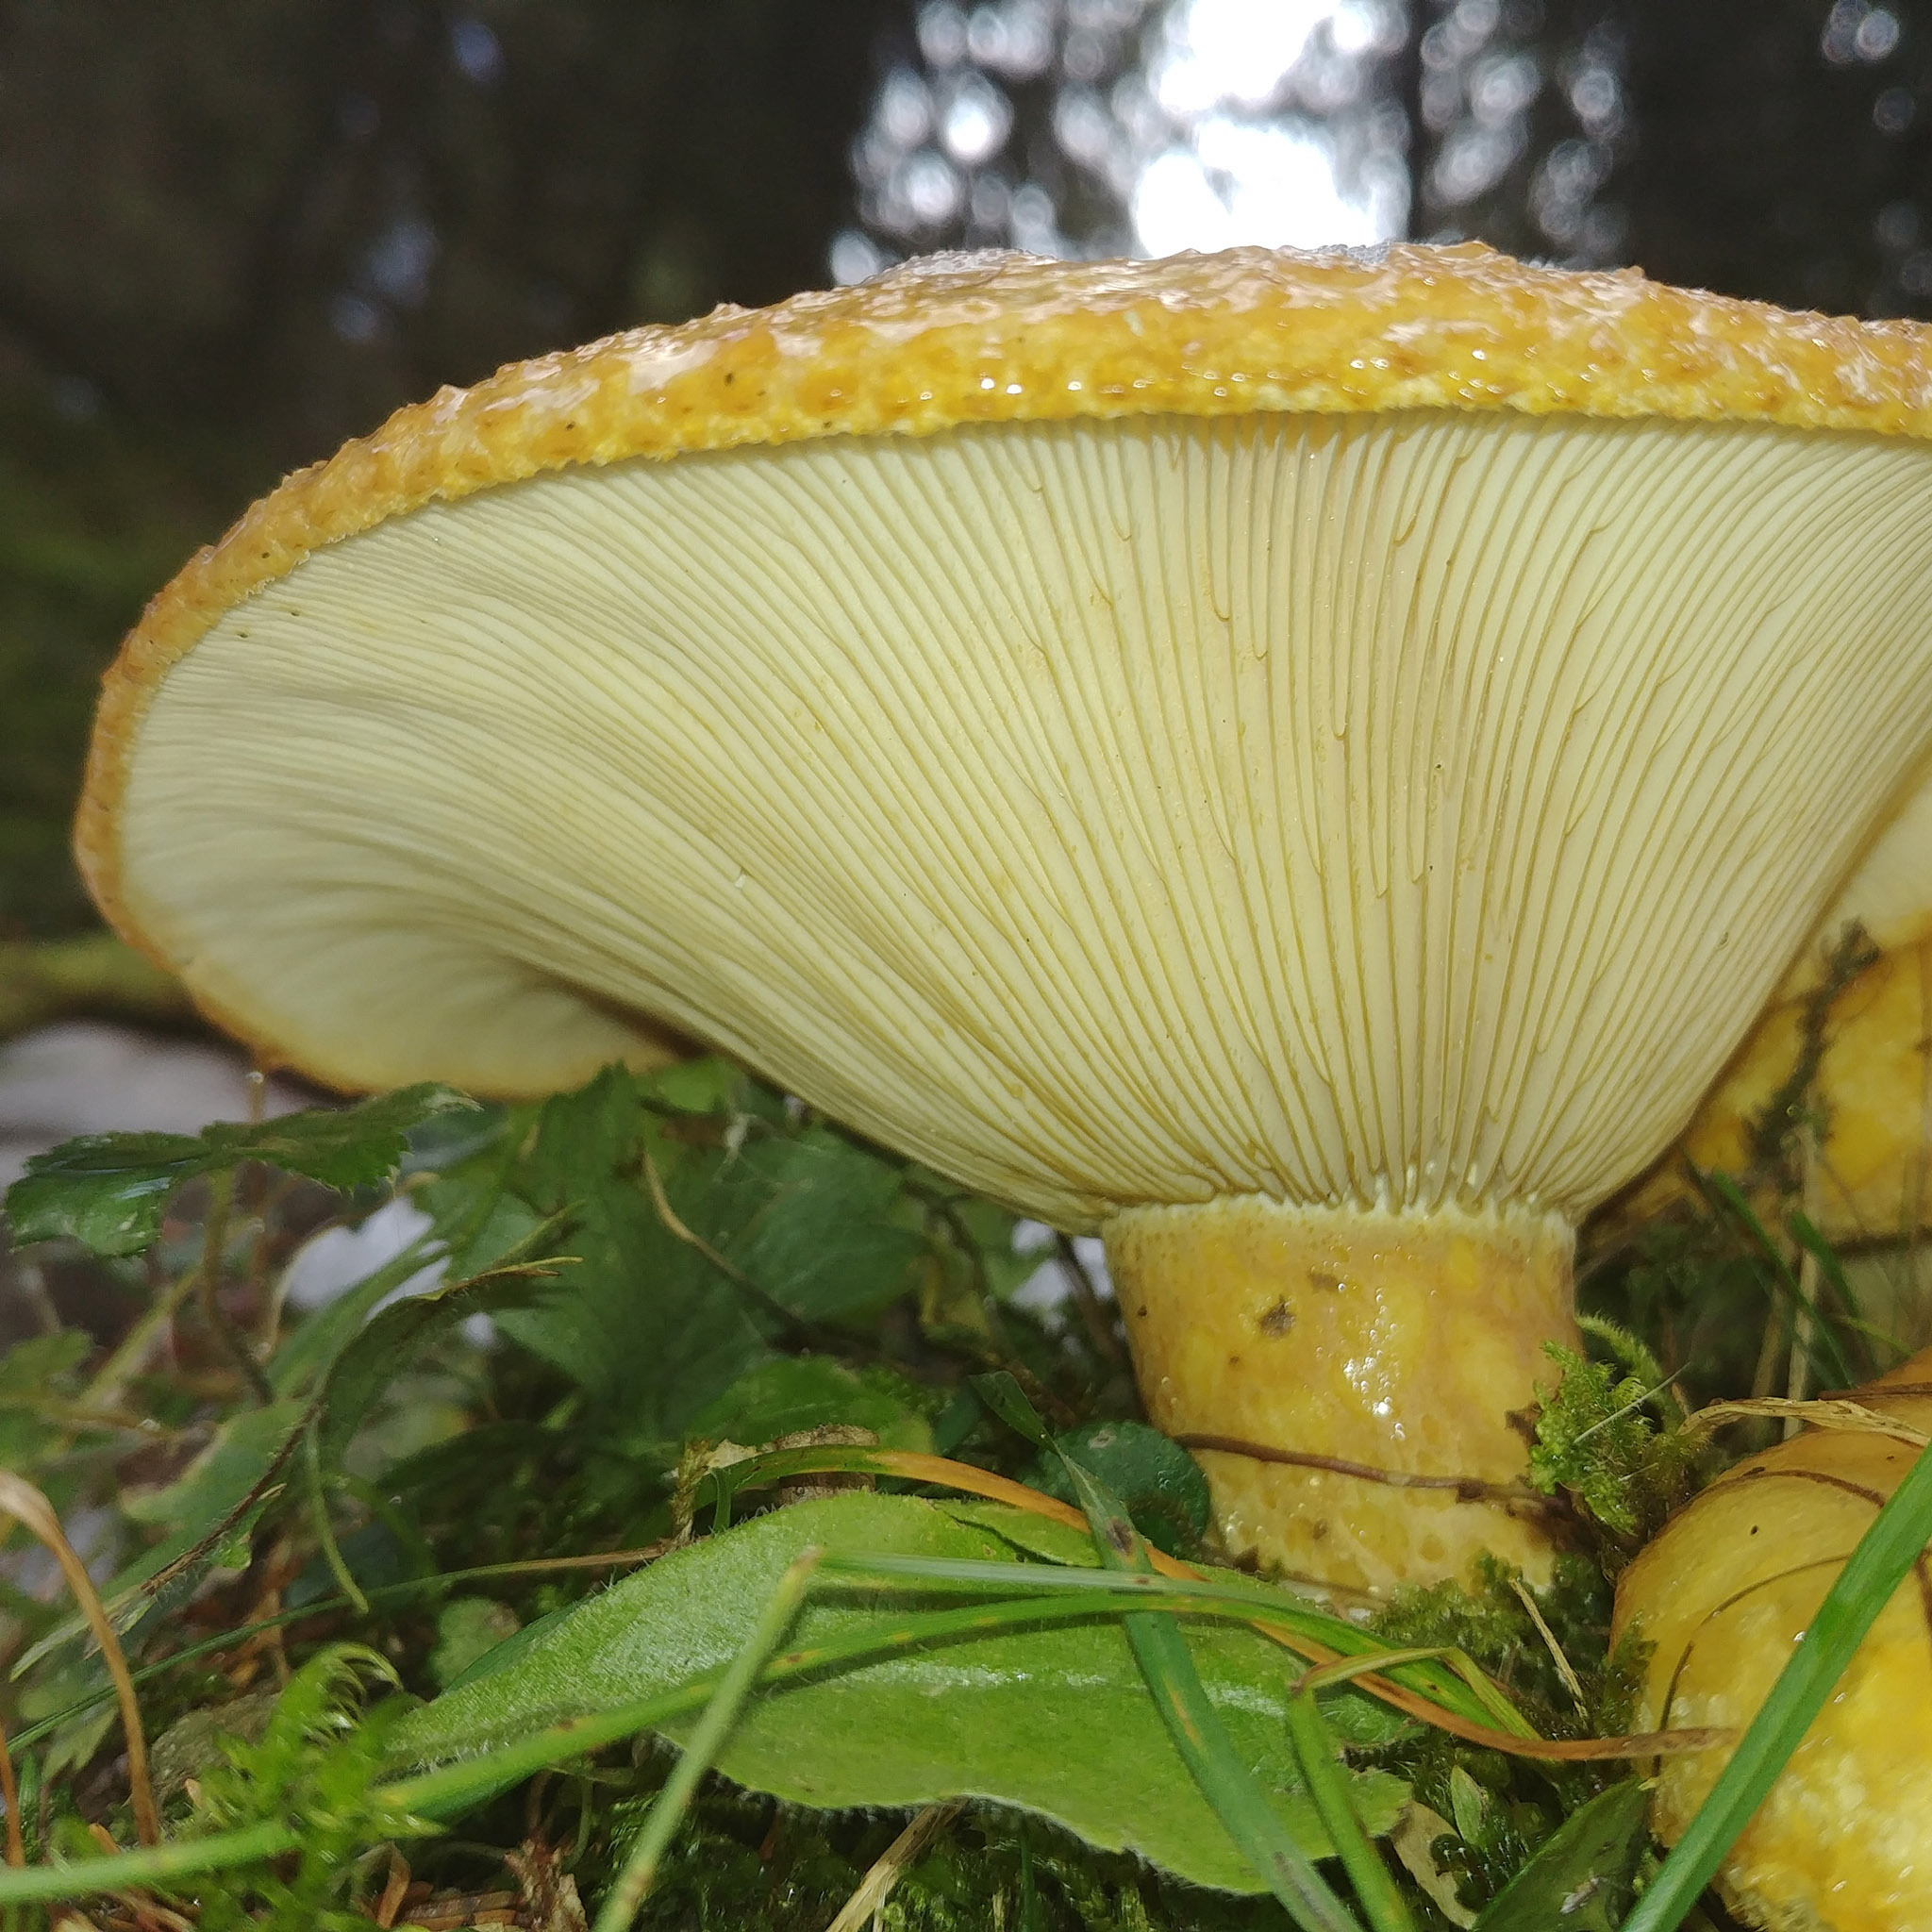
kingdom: Fungi
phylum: Basidiomycota
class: Agaricomycetes
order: Russulales
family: Russulaceae
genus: Lactarius
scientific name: Lactarius scrobiculatus
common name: Spotted milkcap
